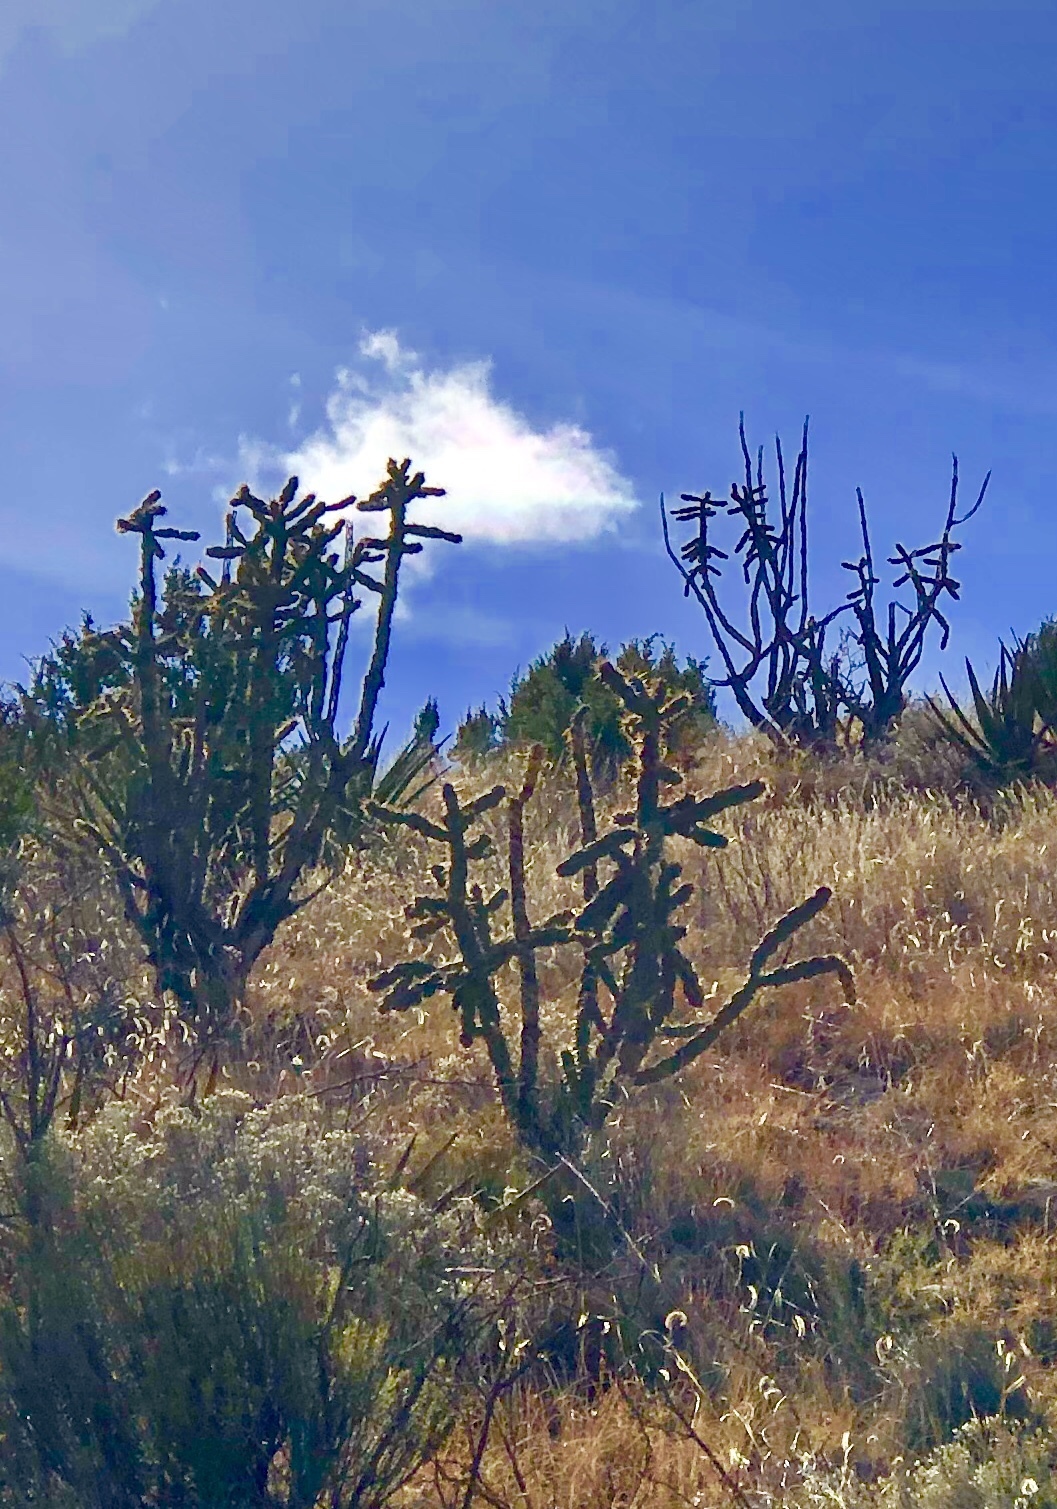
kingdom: Plantae
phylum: Tracheophyta
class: Magnoliopsida
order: Caryophyllales
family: Cactaceae
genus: Cylindropuntia
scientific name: Cylindropuntia imbricata
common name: Candelabrum cactus
